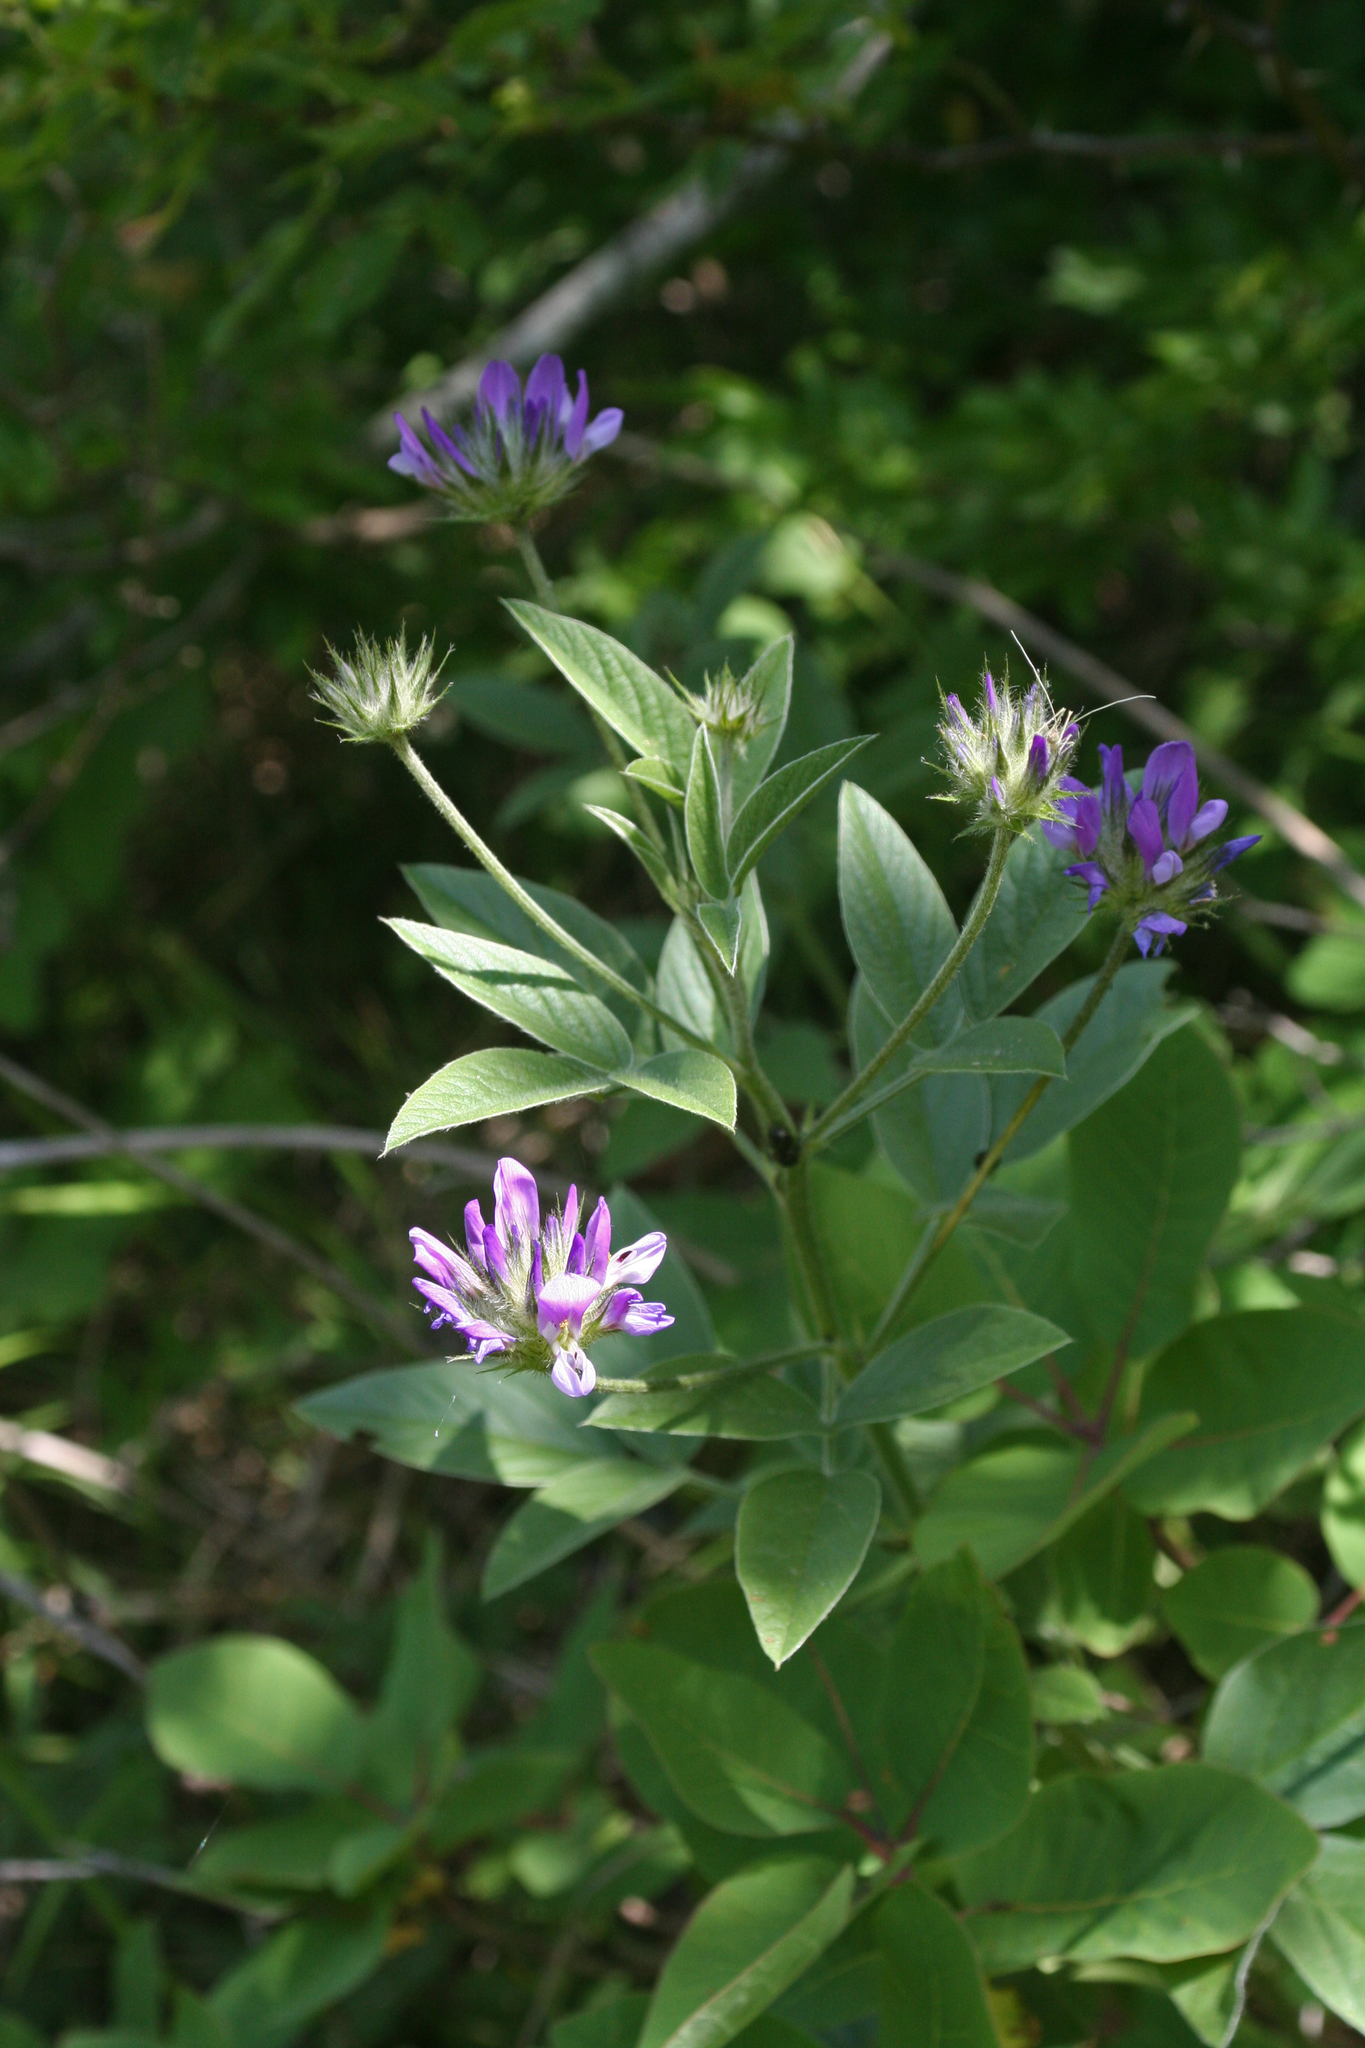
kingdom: Plantae
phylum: Tracheophyta
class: Magnoliopsida
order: Fabales
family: Fabaceae
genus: Bituminaria
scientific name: Bituminaria bituminosa
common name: Arabian pea
